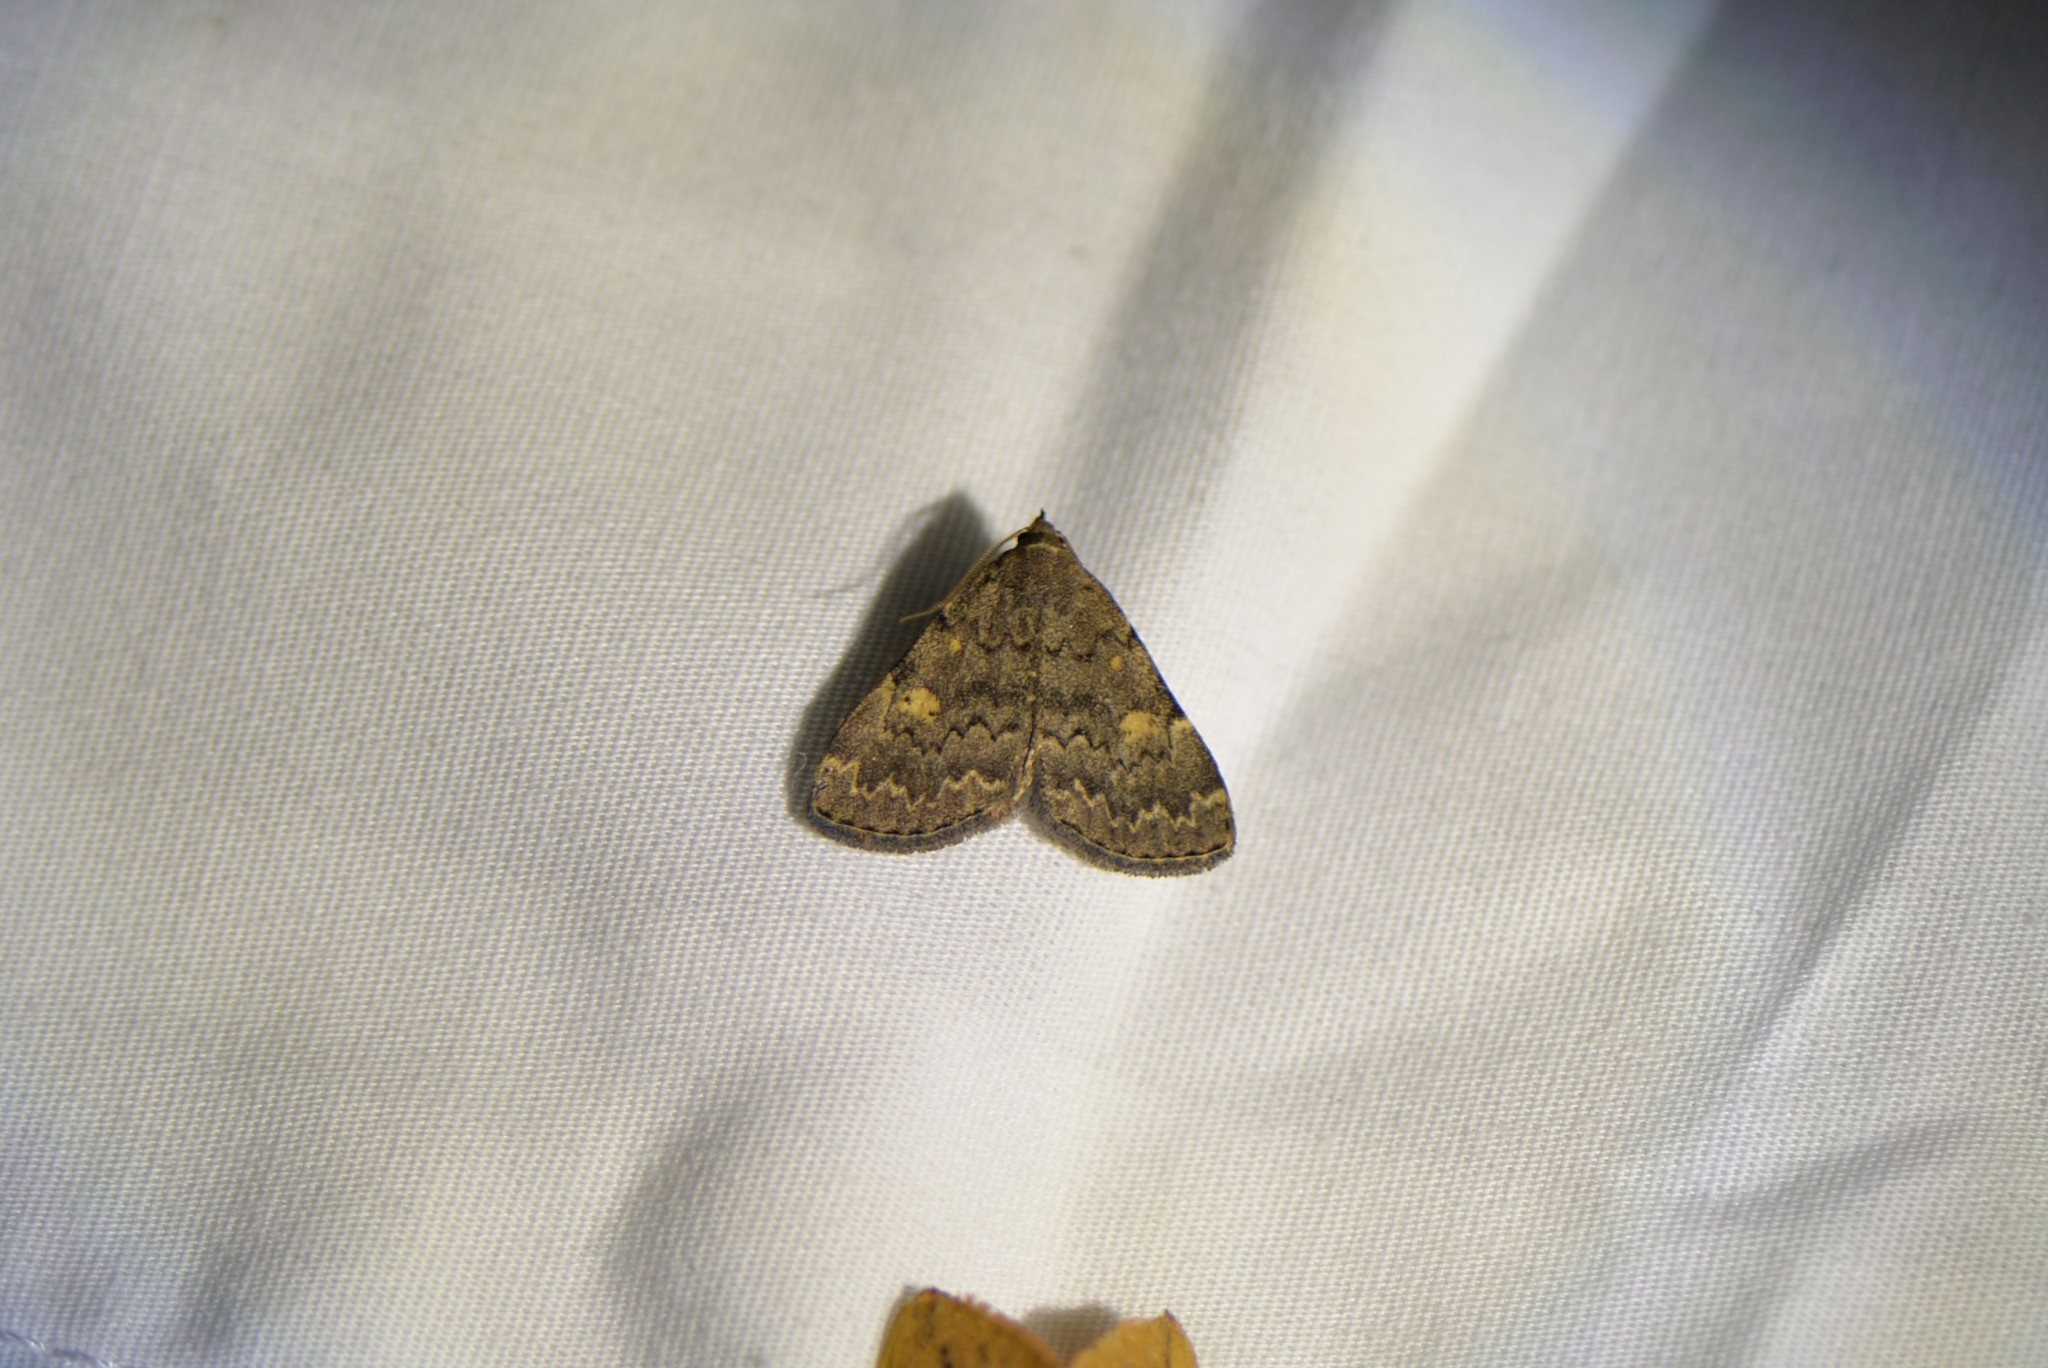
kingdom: Animalia
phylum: Arthropoda
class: Insecta
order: Lepidoptera
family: Erebidae
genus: Idia
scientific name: Idia aemula
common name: Common idia moth
